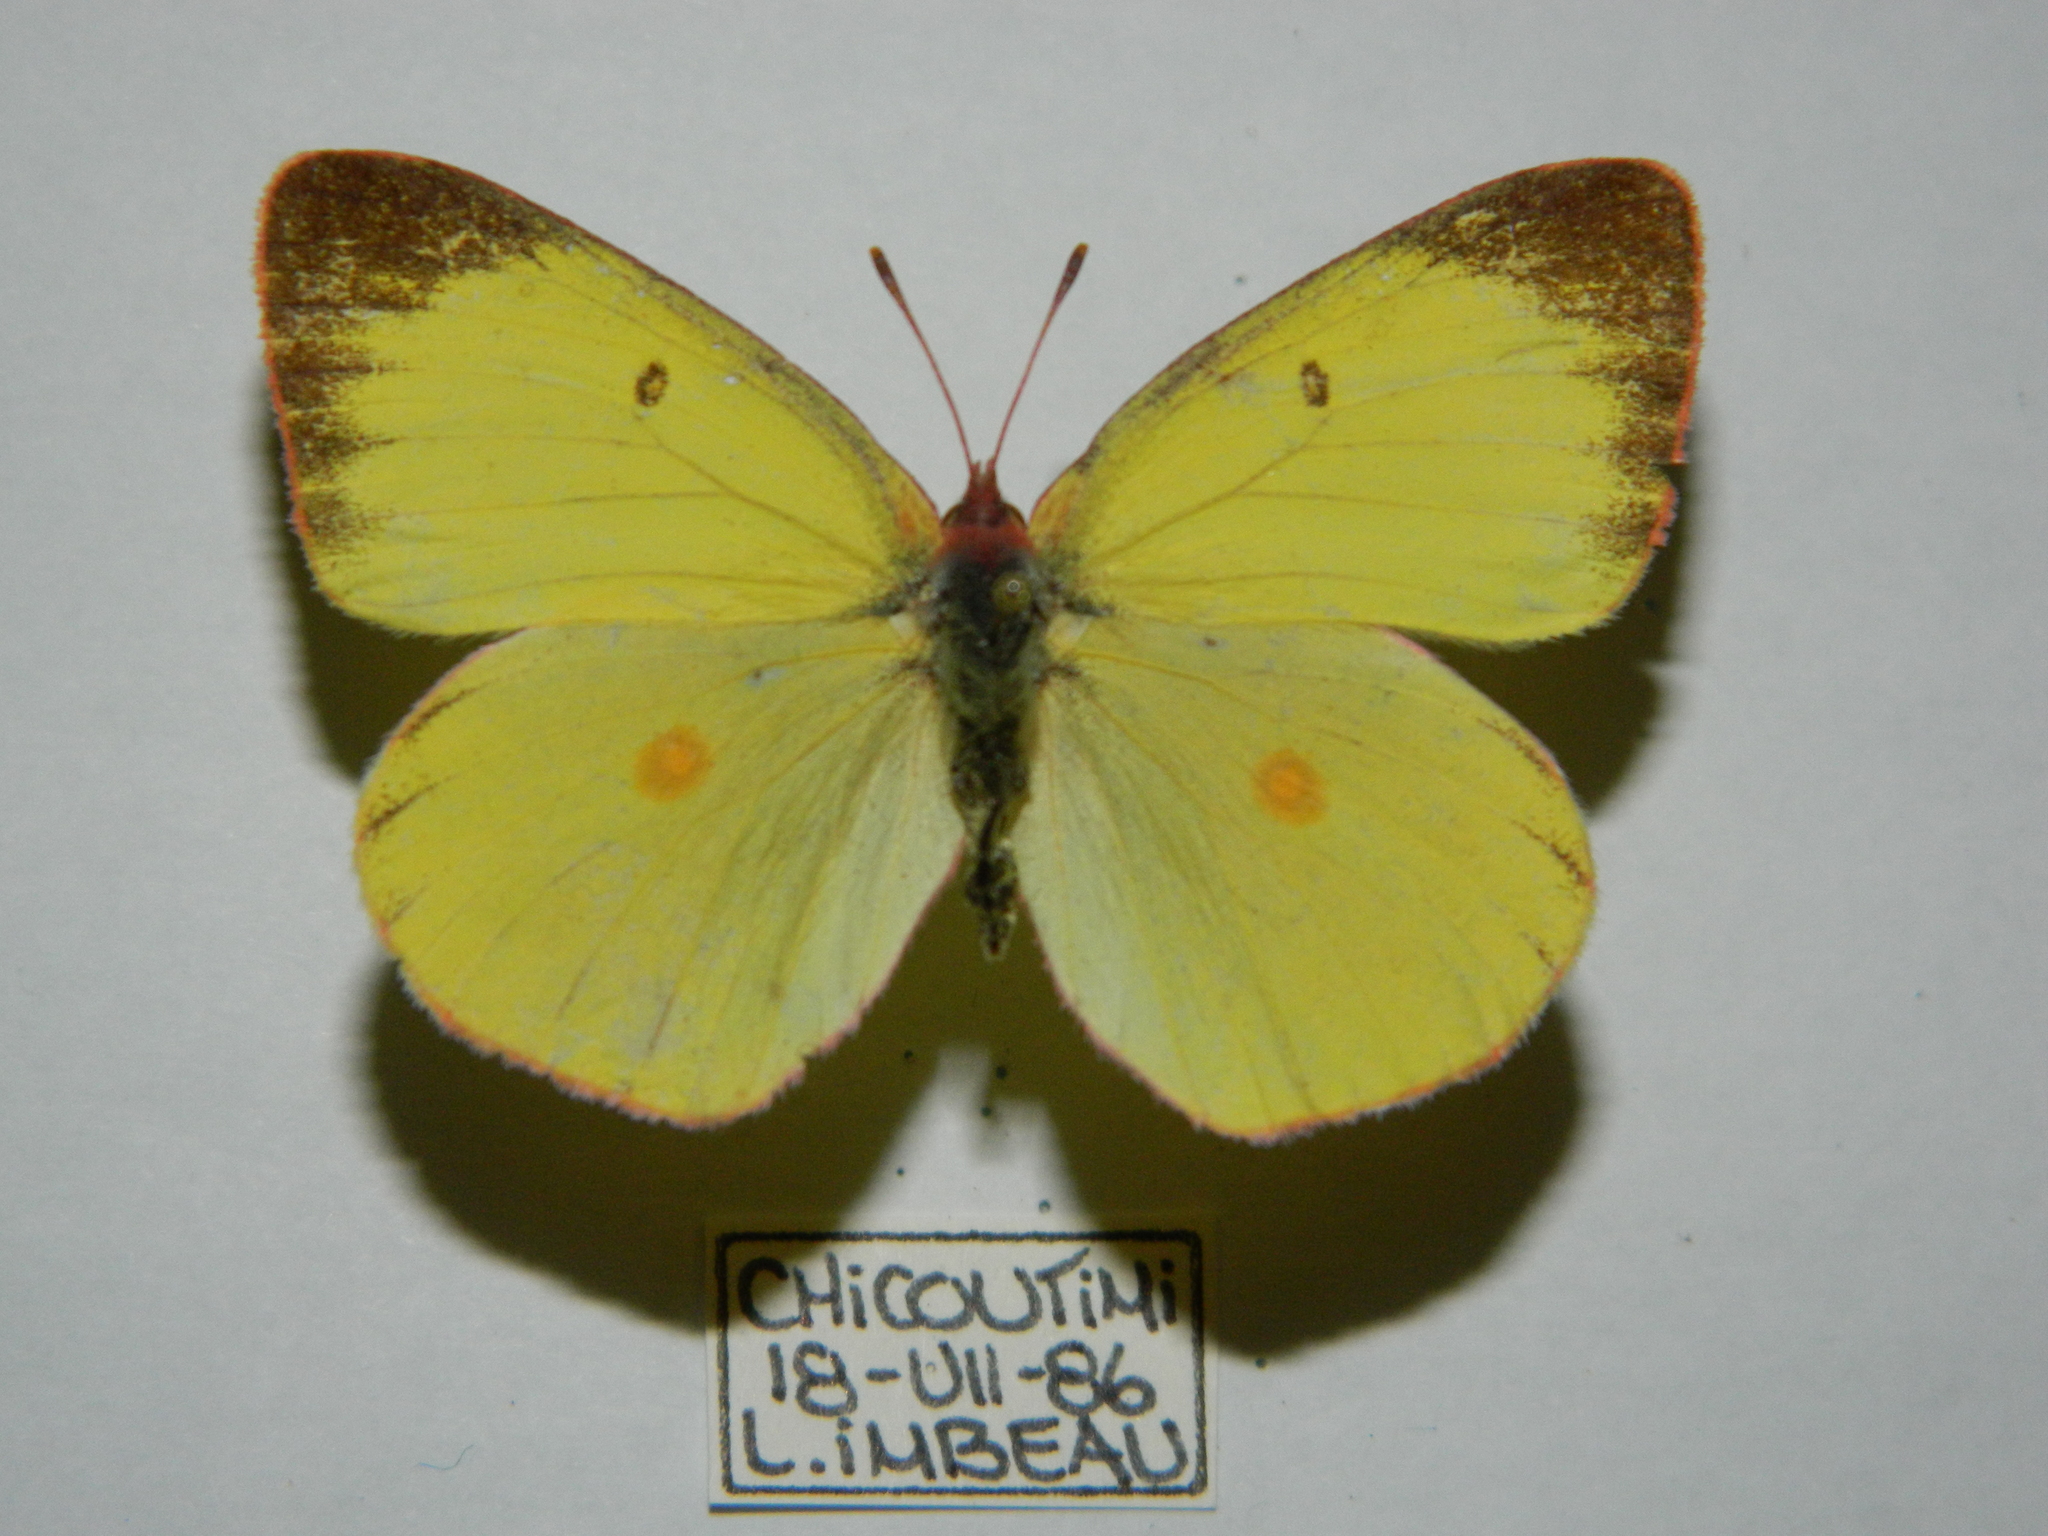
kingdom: Animalia
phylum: Arthropoda
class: Insecta
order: Lepidoptera
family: Pieridae
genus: Colias
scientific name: Colias interior
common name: Pink-edged sulphur
